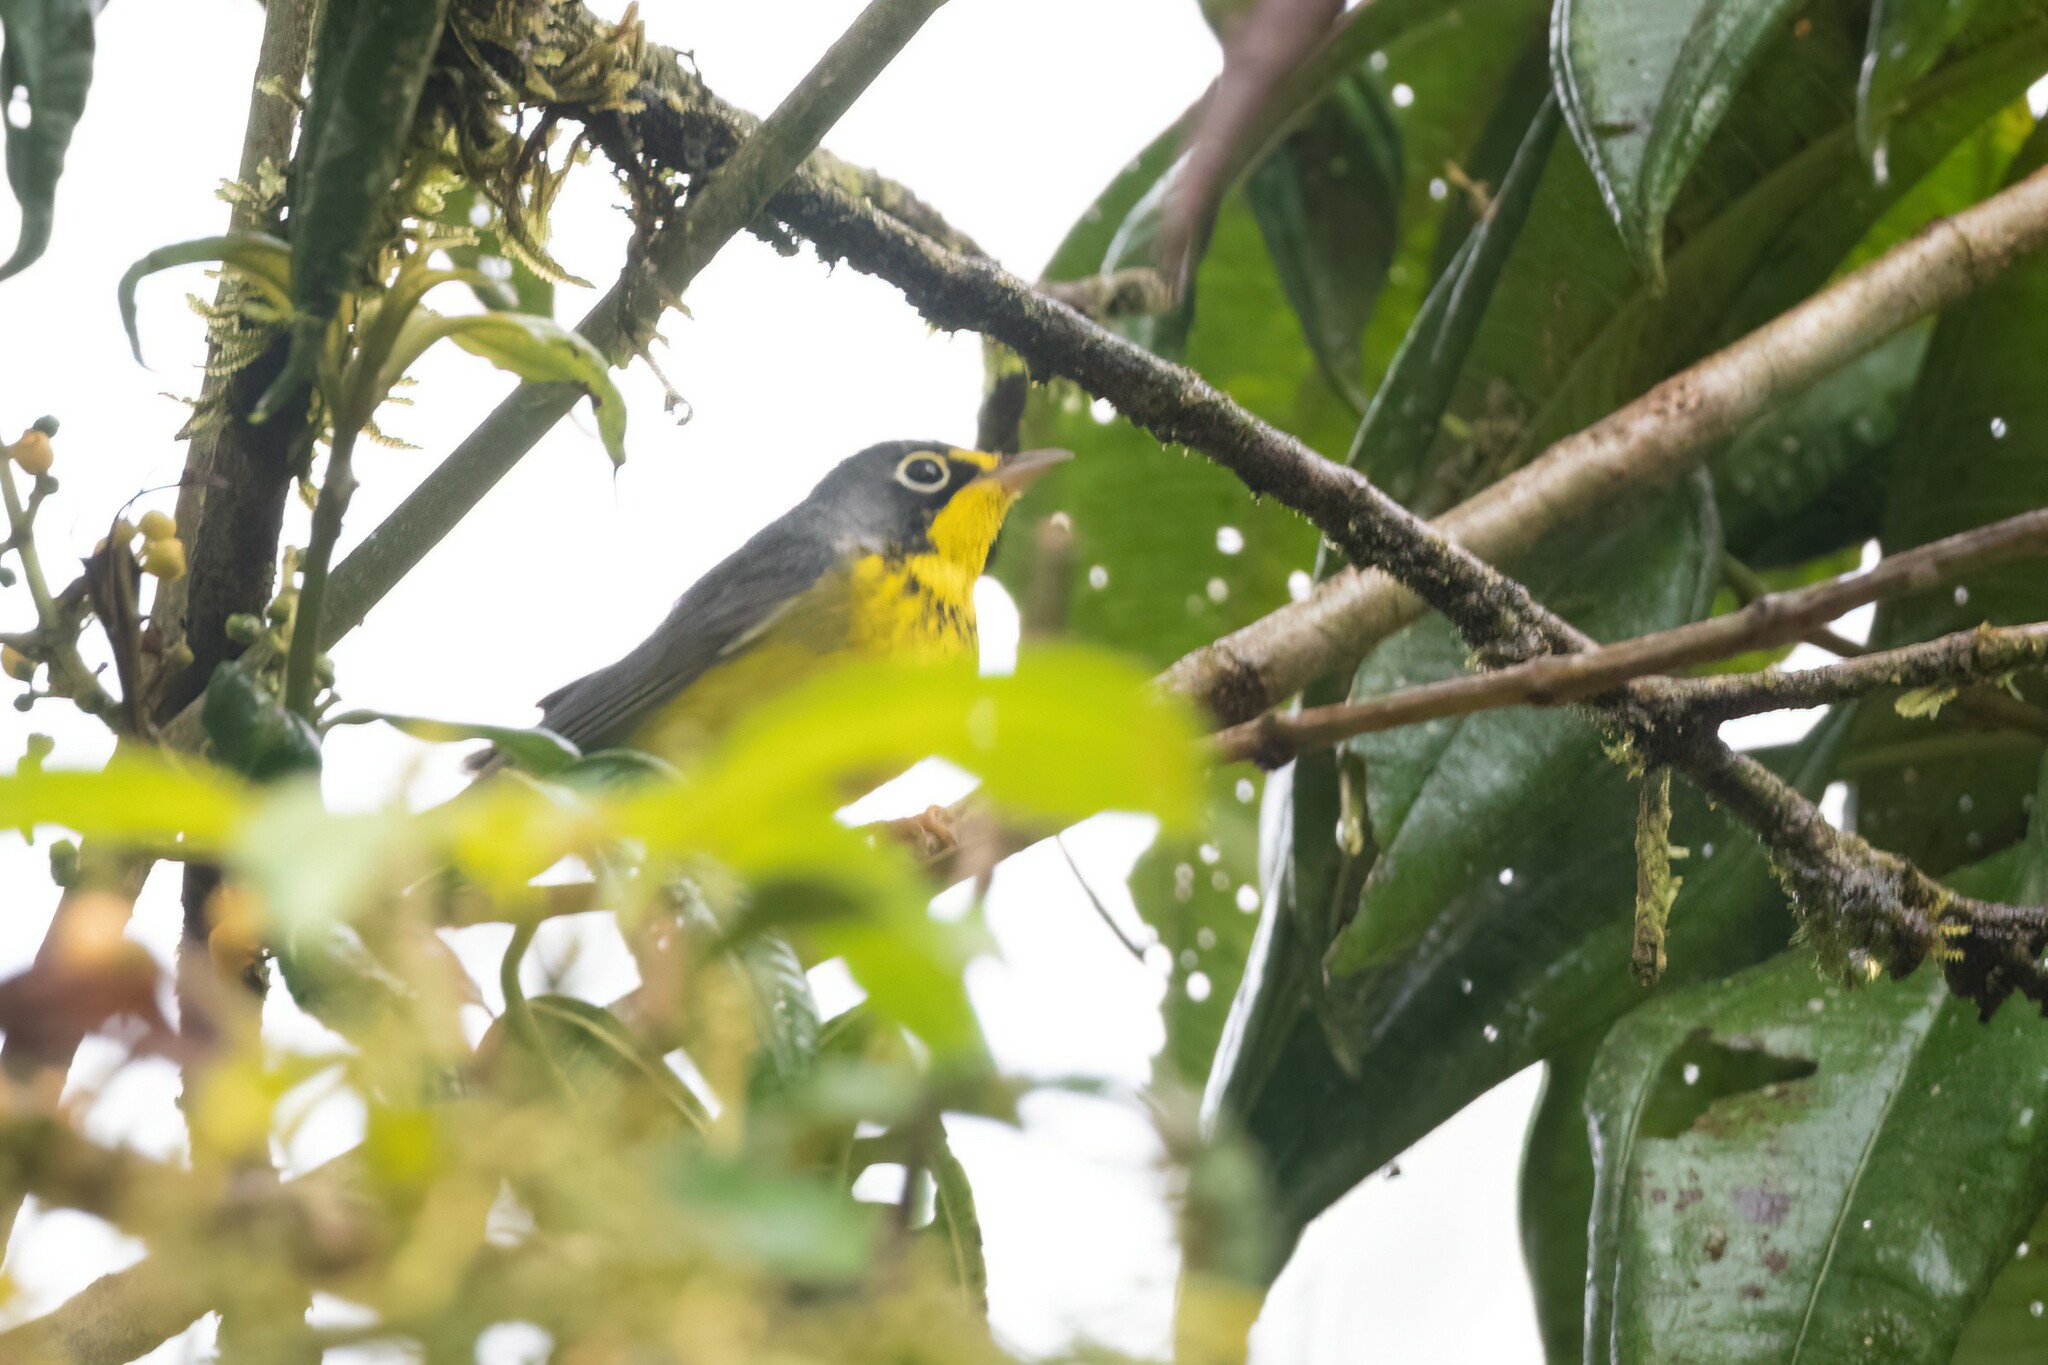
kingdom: Animalia
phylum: Chordata
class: Aves
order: Passeriformes
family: Parulidae
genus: Cardellina
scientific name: Cardellina canadensis
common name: Canada warbler
